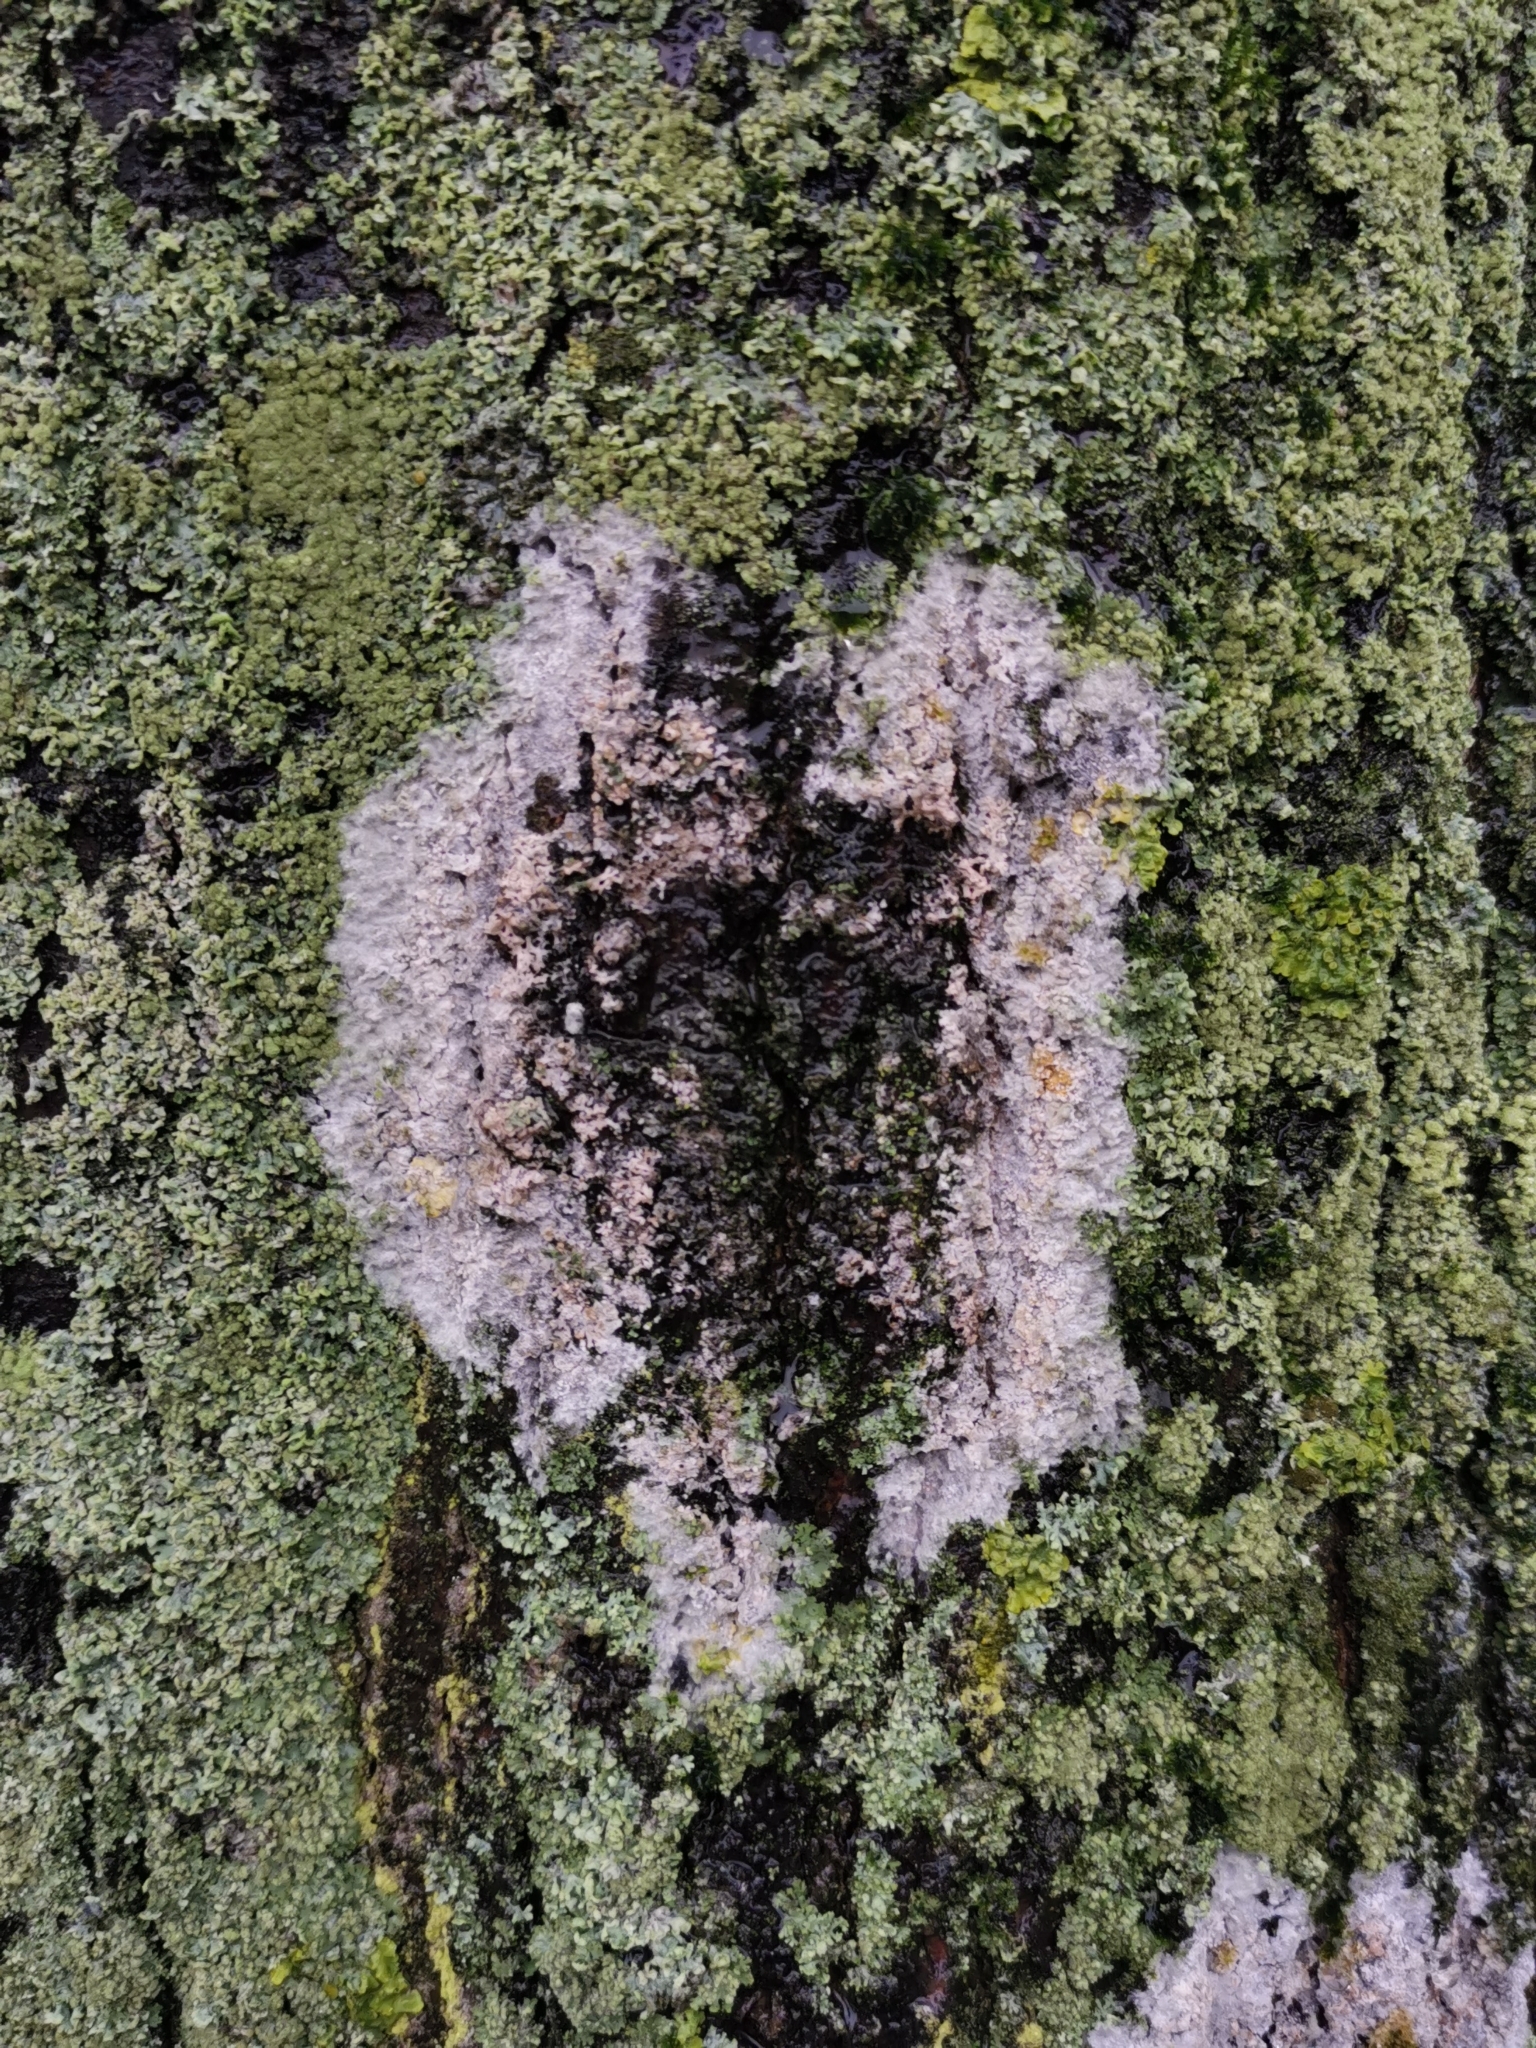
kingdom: Fungi
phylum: Basidiomycota
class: Agaricomycetes
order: Atheliales
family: Atheliaceae
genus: Athelia
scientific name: Athelia arachnoidea
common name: Candelabra duster
